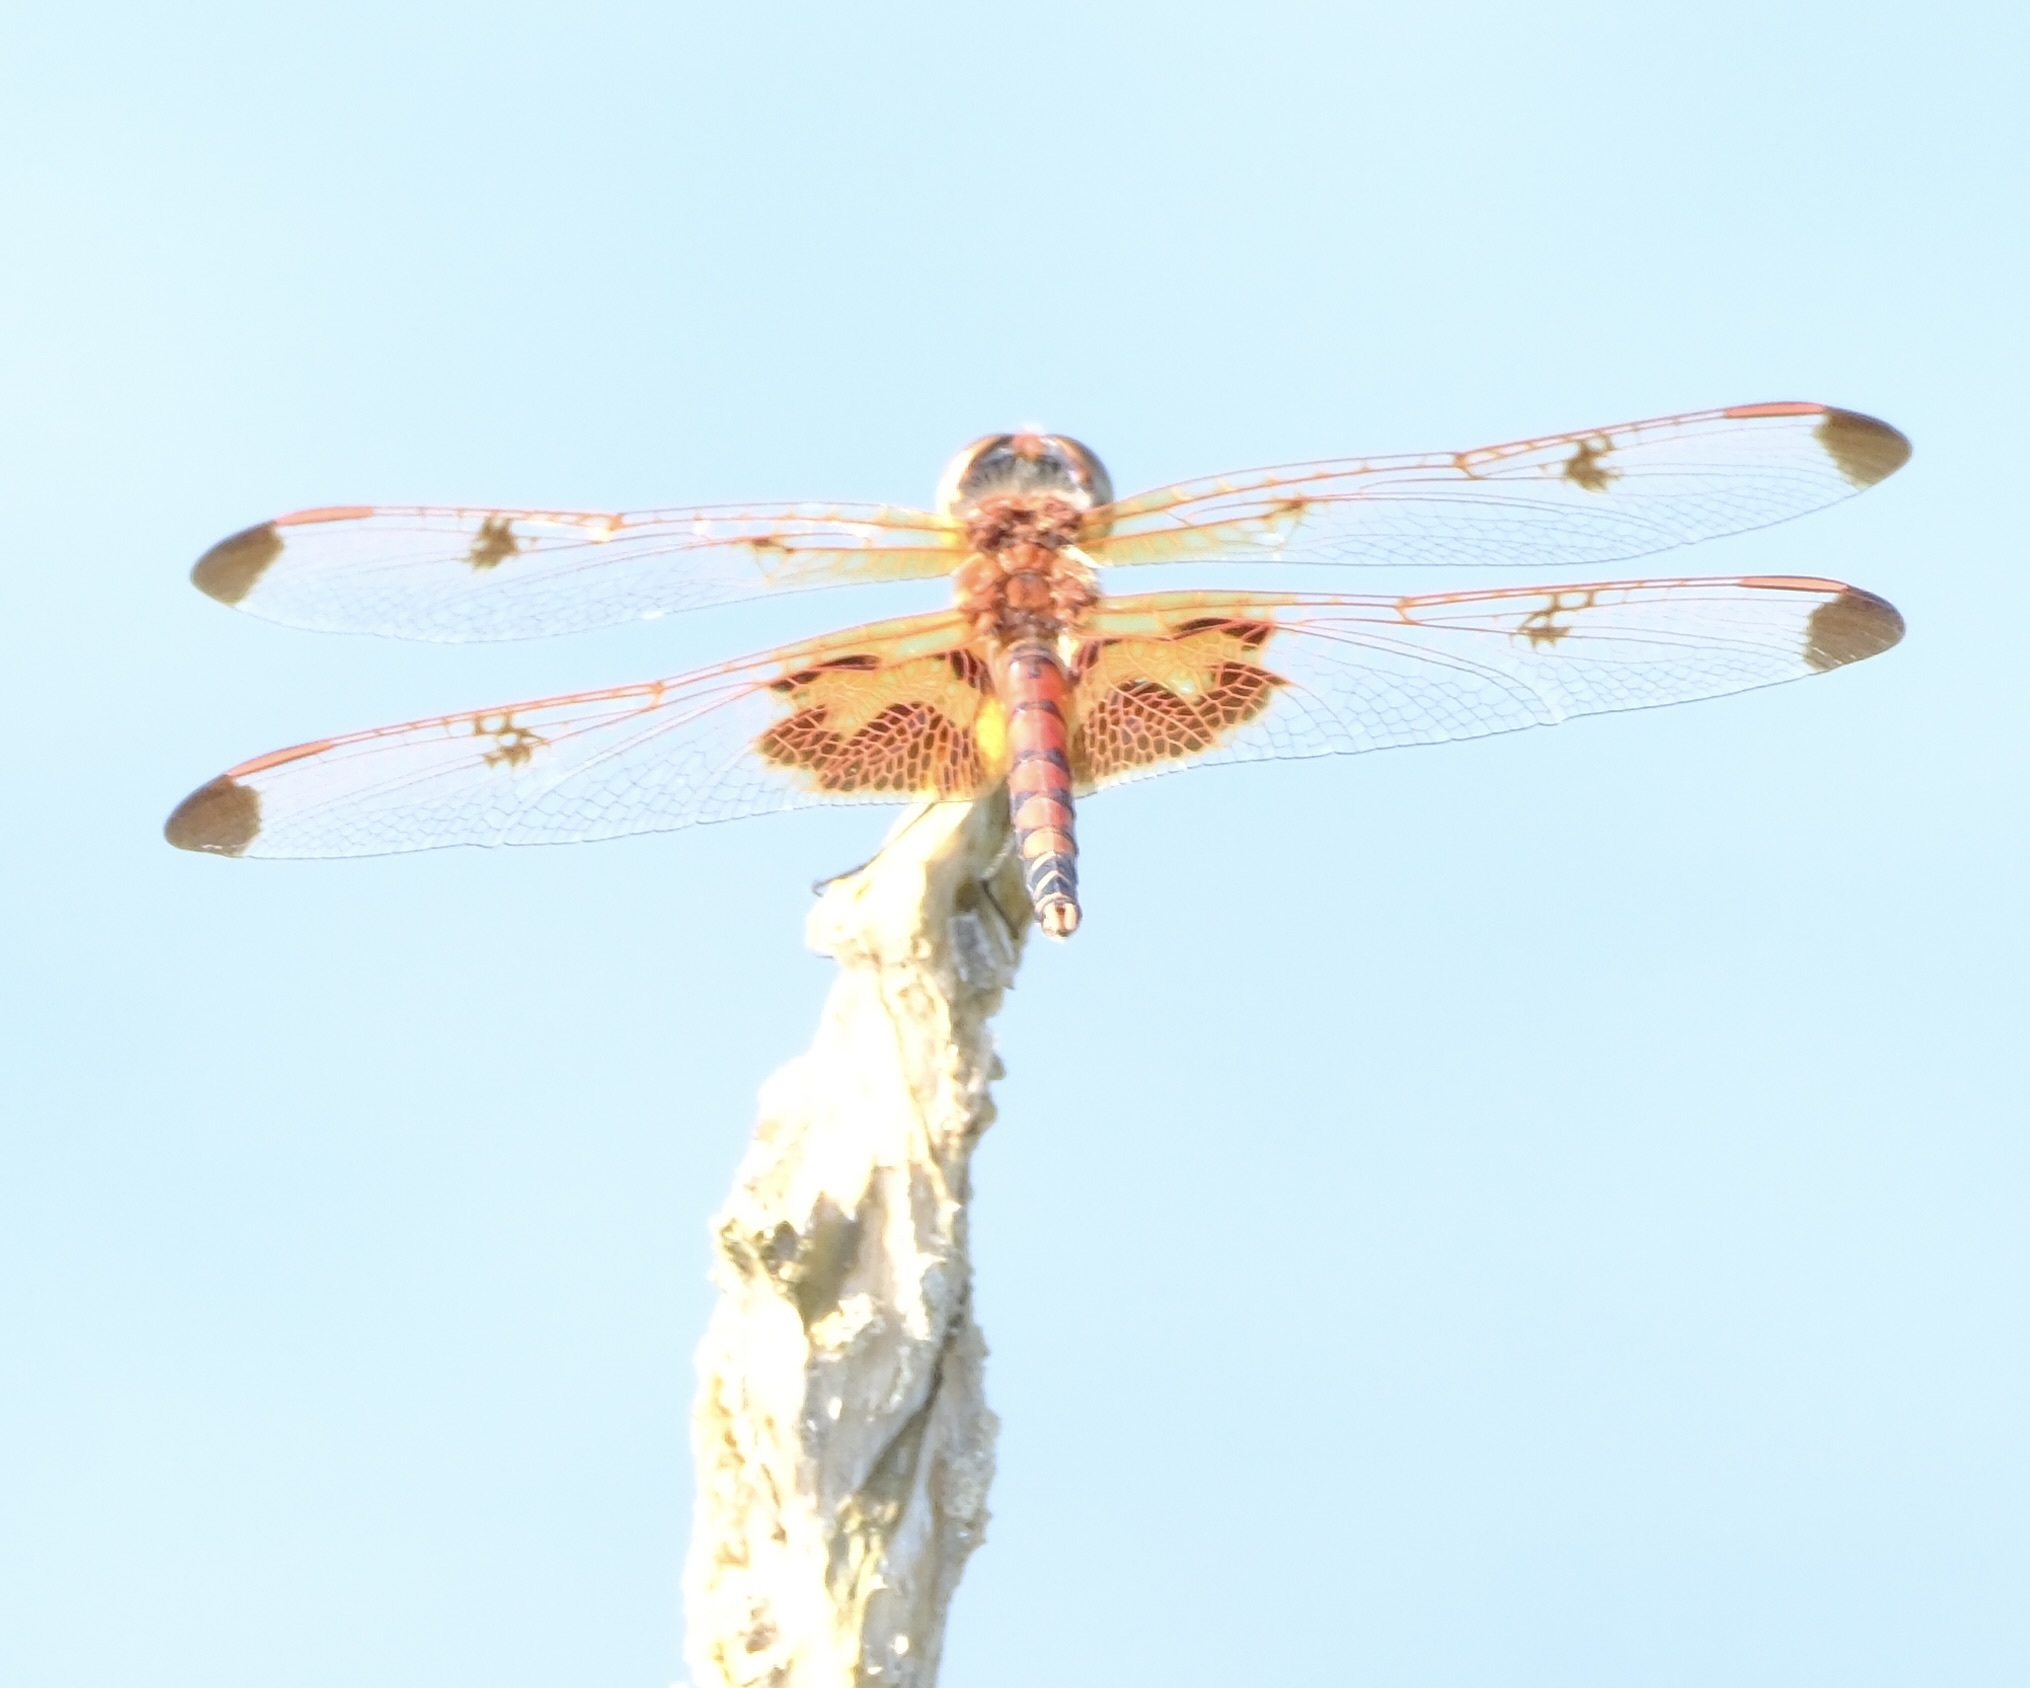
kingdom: Animalia
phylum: Arthropoda
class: Insecta
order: Odonata
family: Libellulidae
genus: Celithemis
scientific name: Celithemis elisa
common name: Calico pennant
